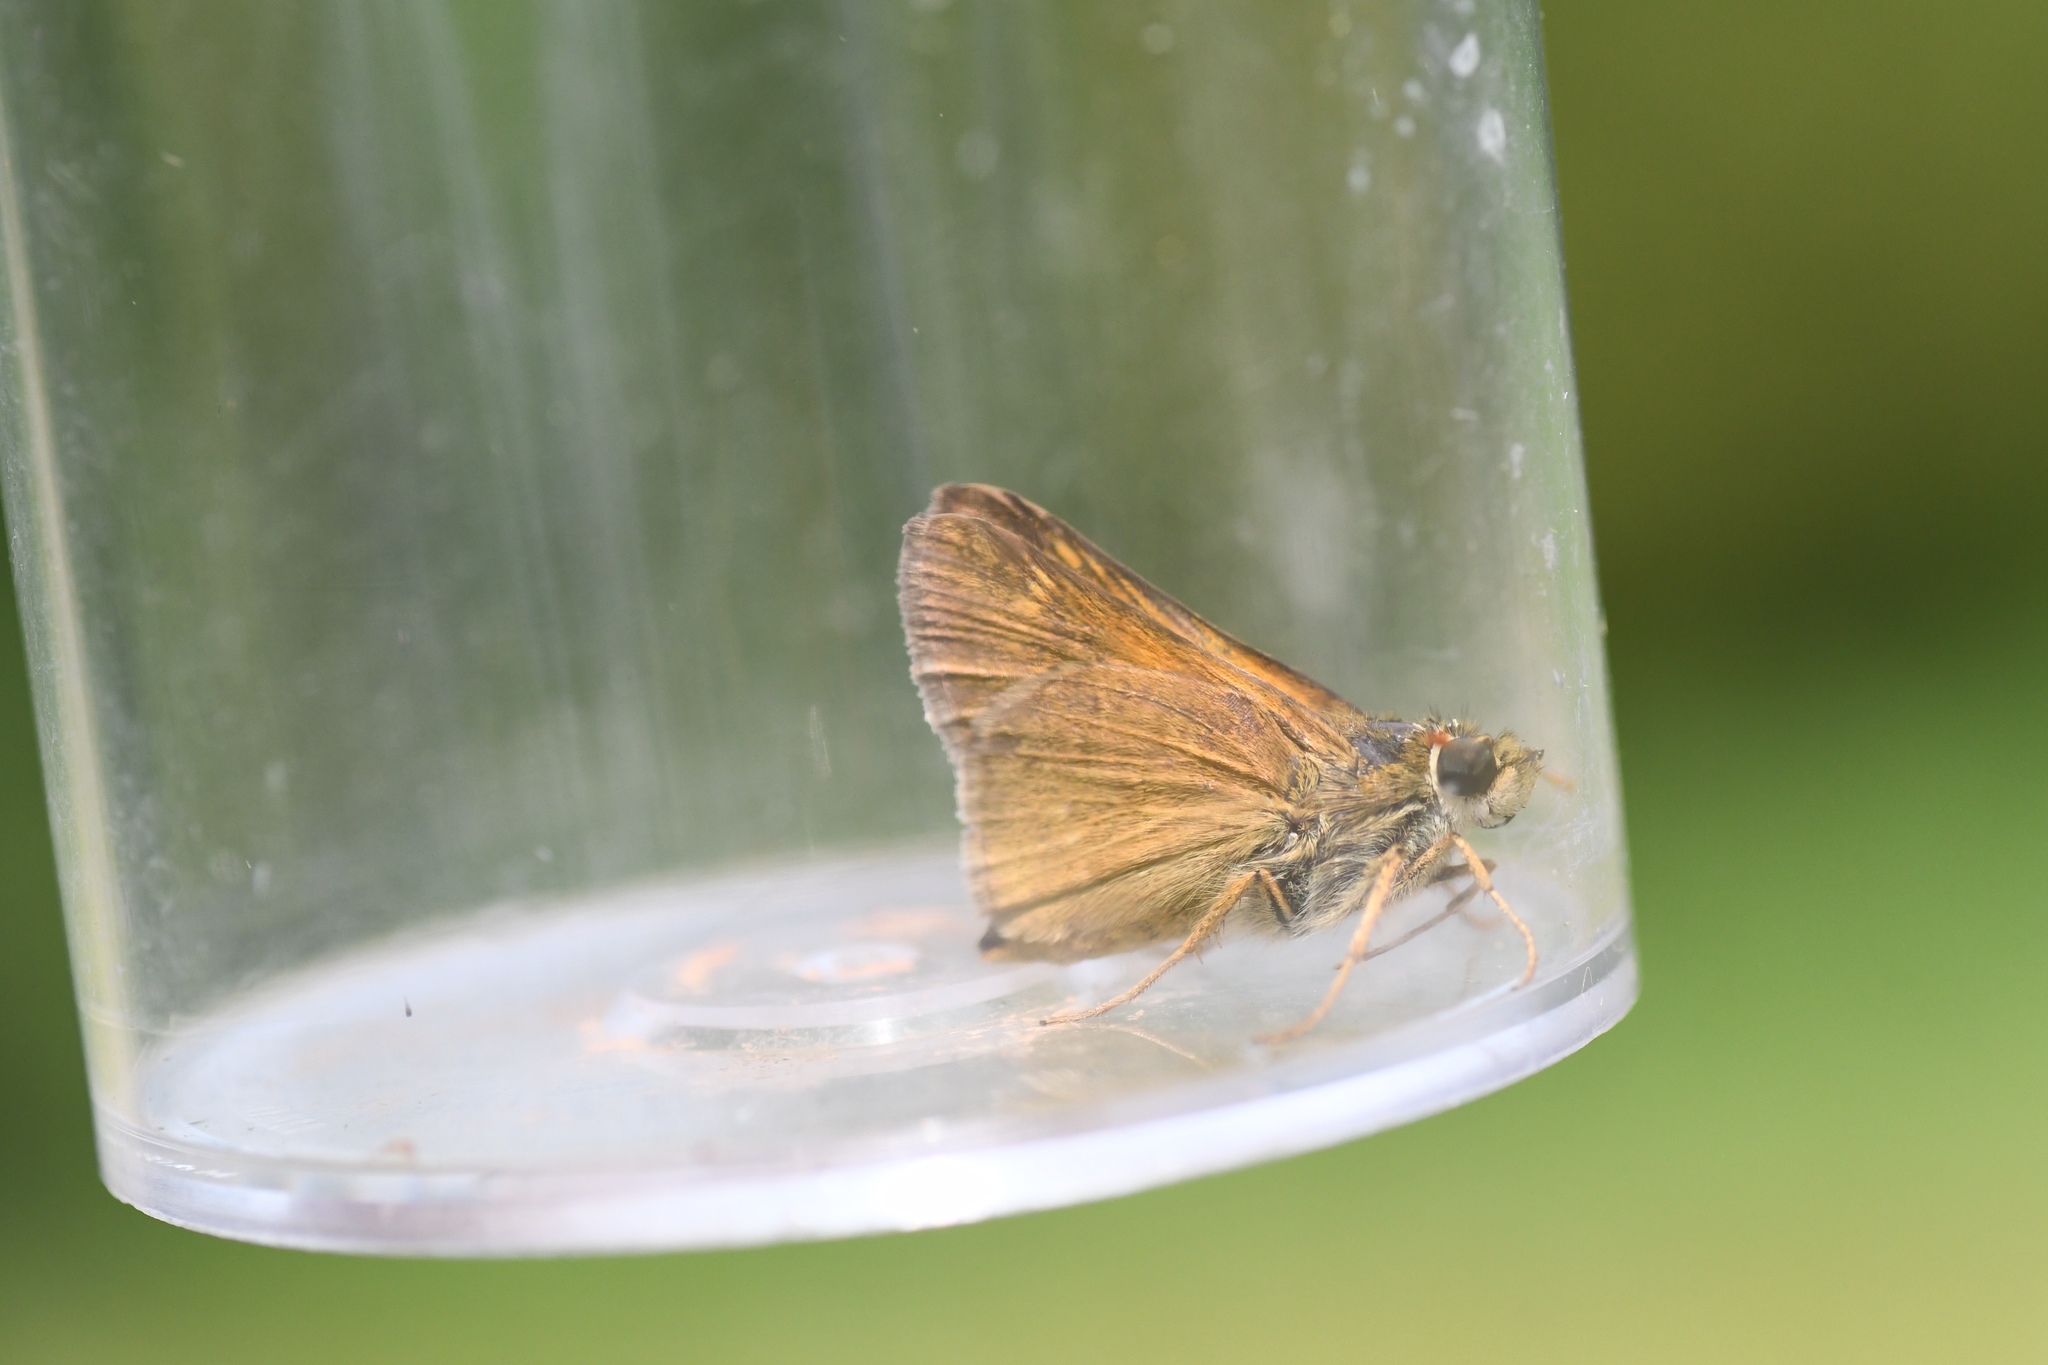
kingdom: Animalia
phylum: Arthropoda
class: Insecta
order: Lepidoptera
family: Hesperiidae
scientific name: Hesperiidae
